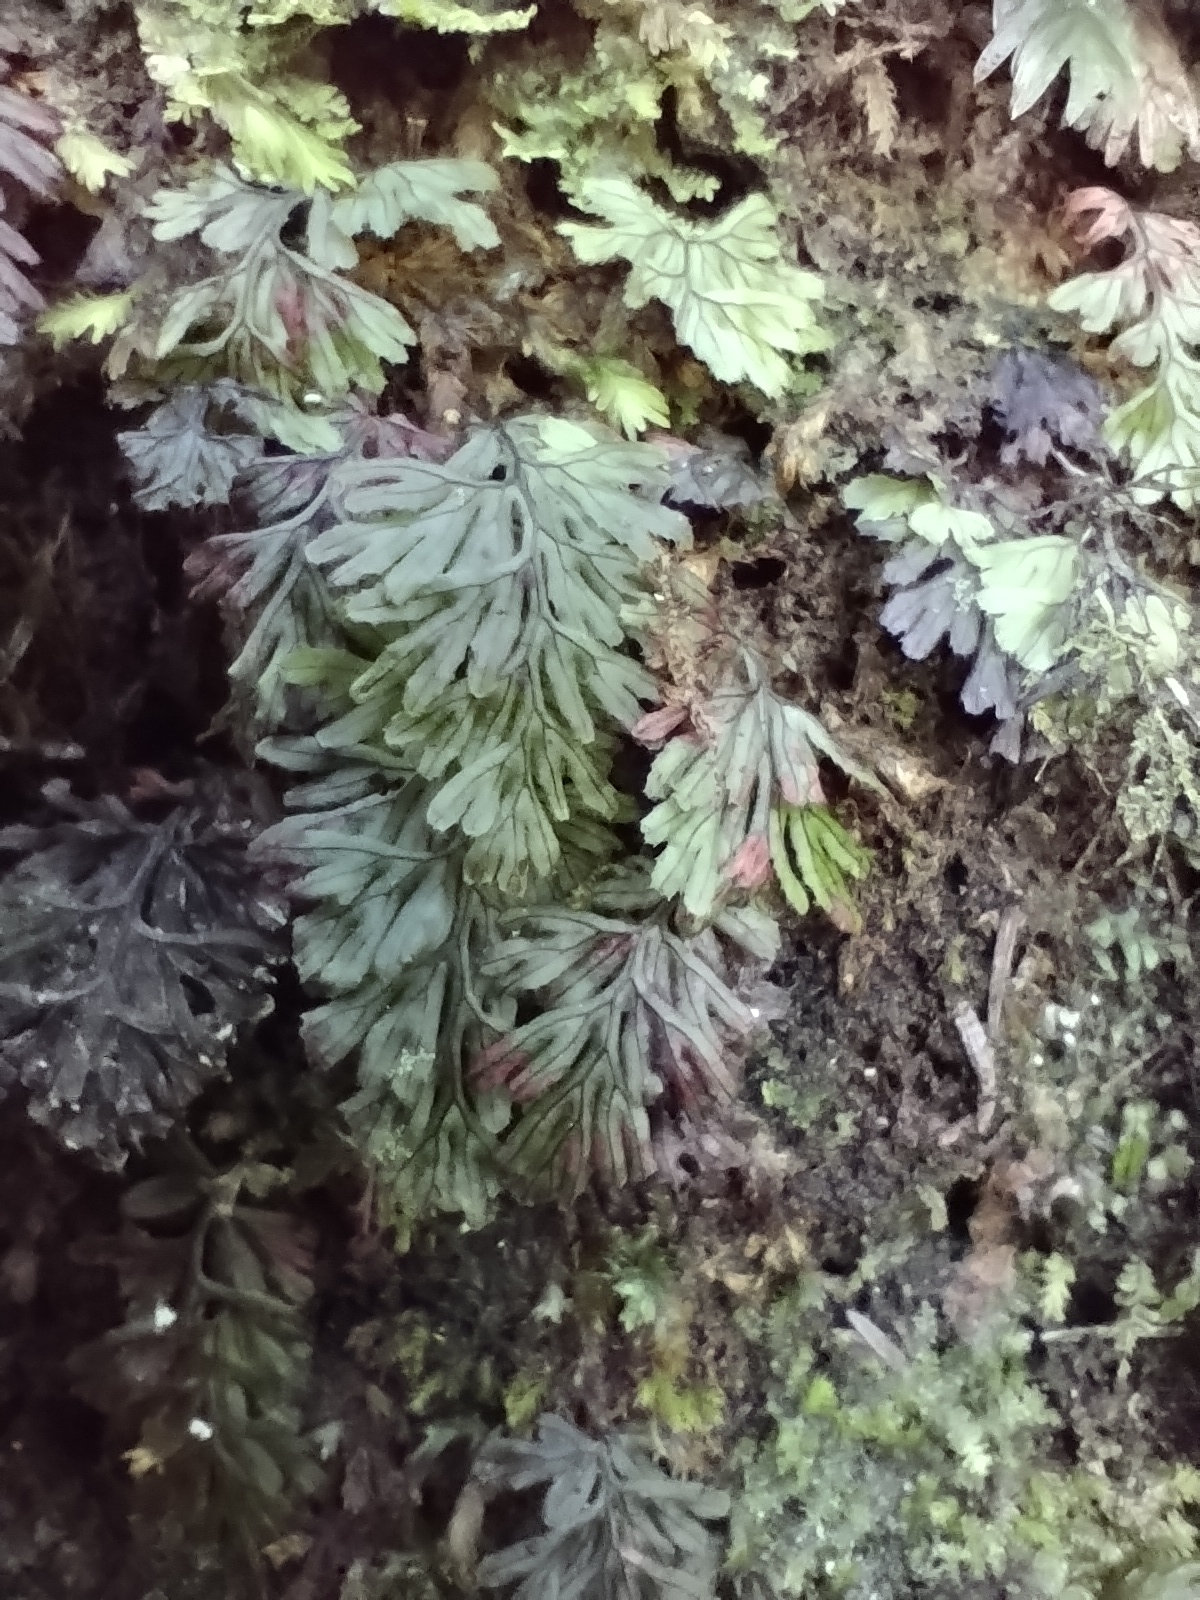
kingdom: Plantae
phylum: Tracheophyta
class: Polypodiopsida
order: Hymenophyllales
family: Hymenophyllaceae
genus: Hymenophyllum
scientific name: Hymenophyllum tunbrigense
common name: Tunbridge filmy fern
